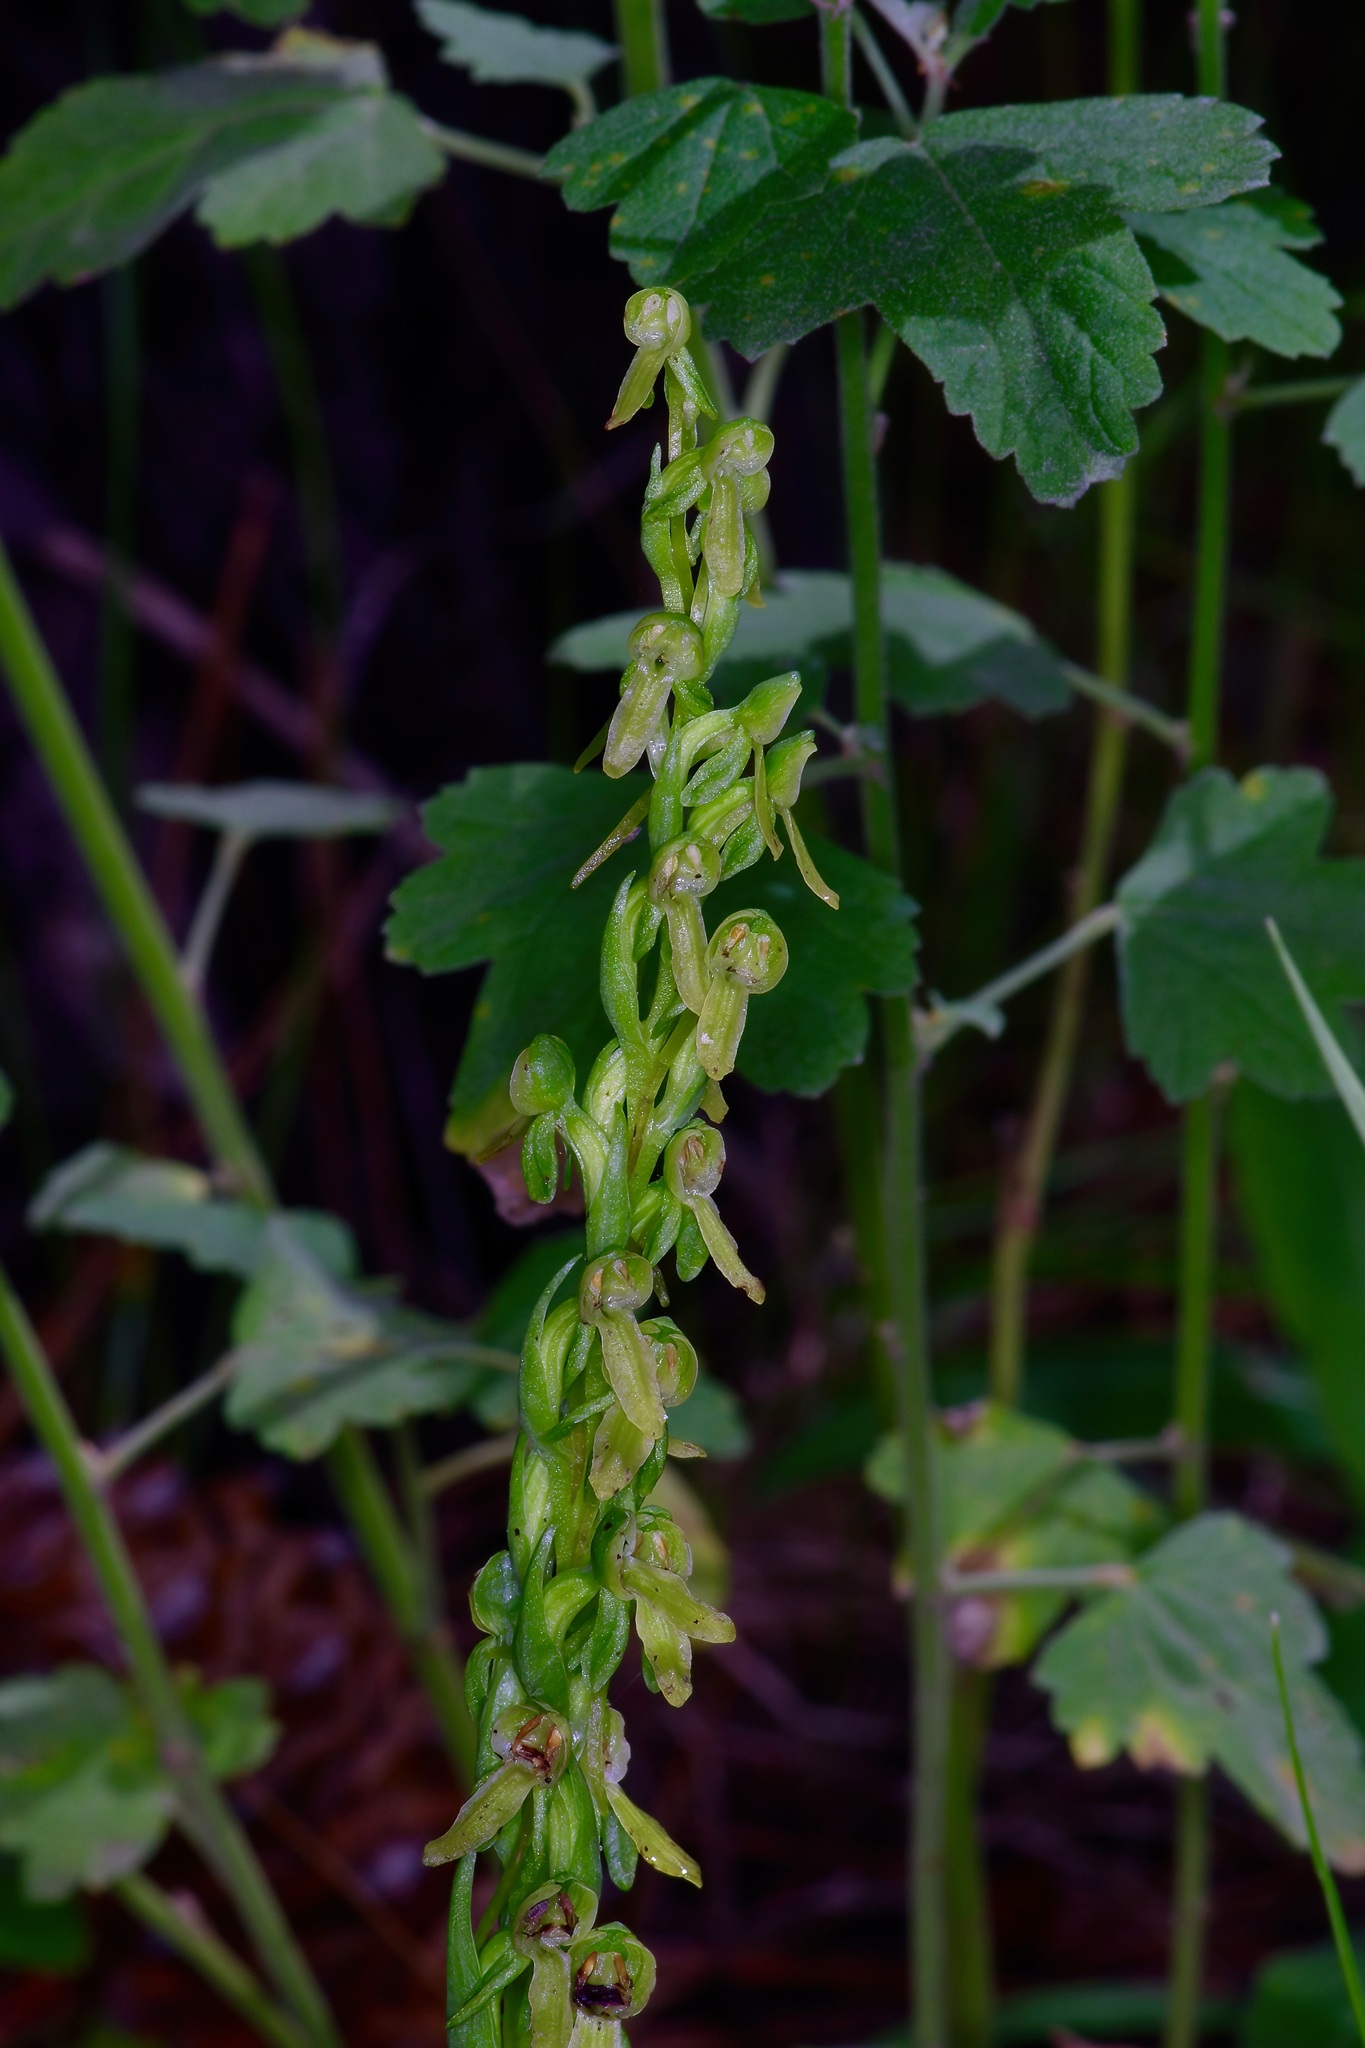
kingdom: Plantae
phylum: Tracheophyta
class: Liliopsida
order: Asparagales
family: Orchidaceae
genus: Platanthera
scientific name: Platanthera brevifolia
